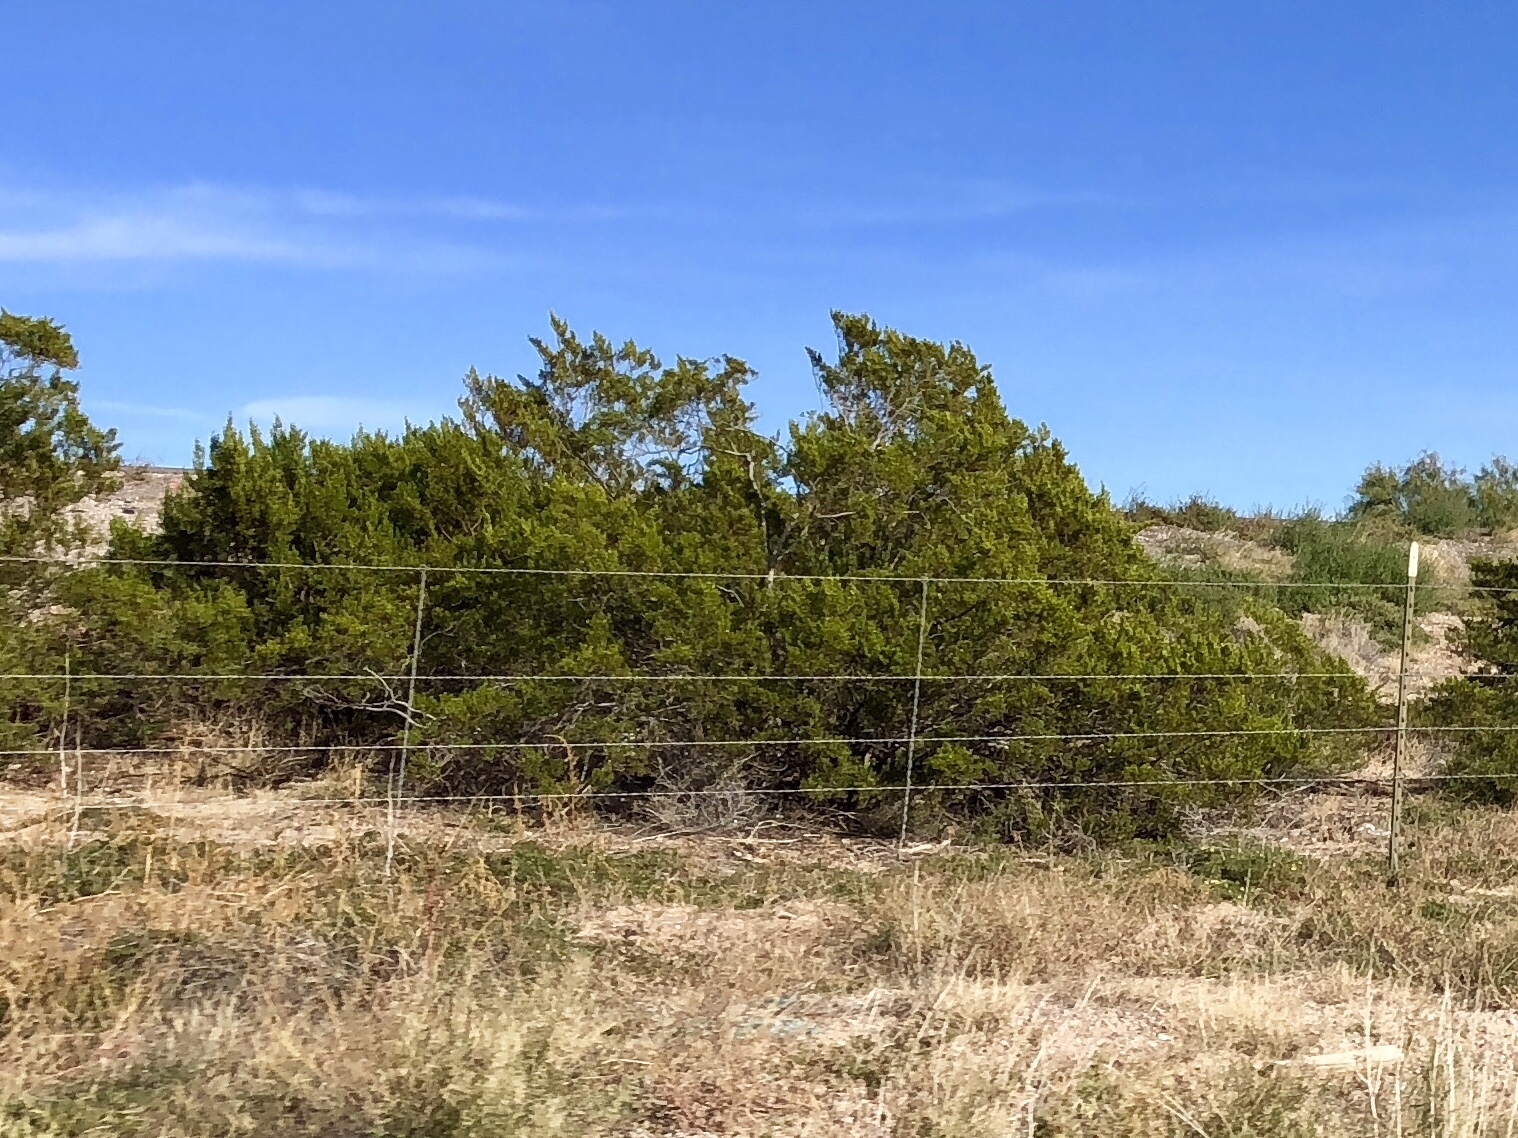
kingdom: Plantae
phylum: Tracheophyta
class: Magnoliopsida
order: Zygophyllales
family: Zygophyllaceae
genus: Larrea
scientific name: Larrea tridentata
